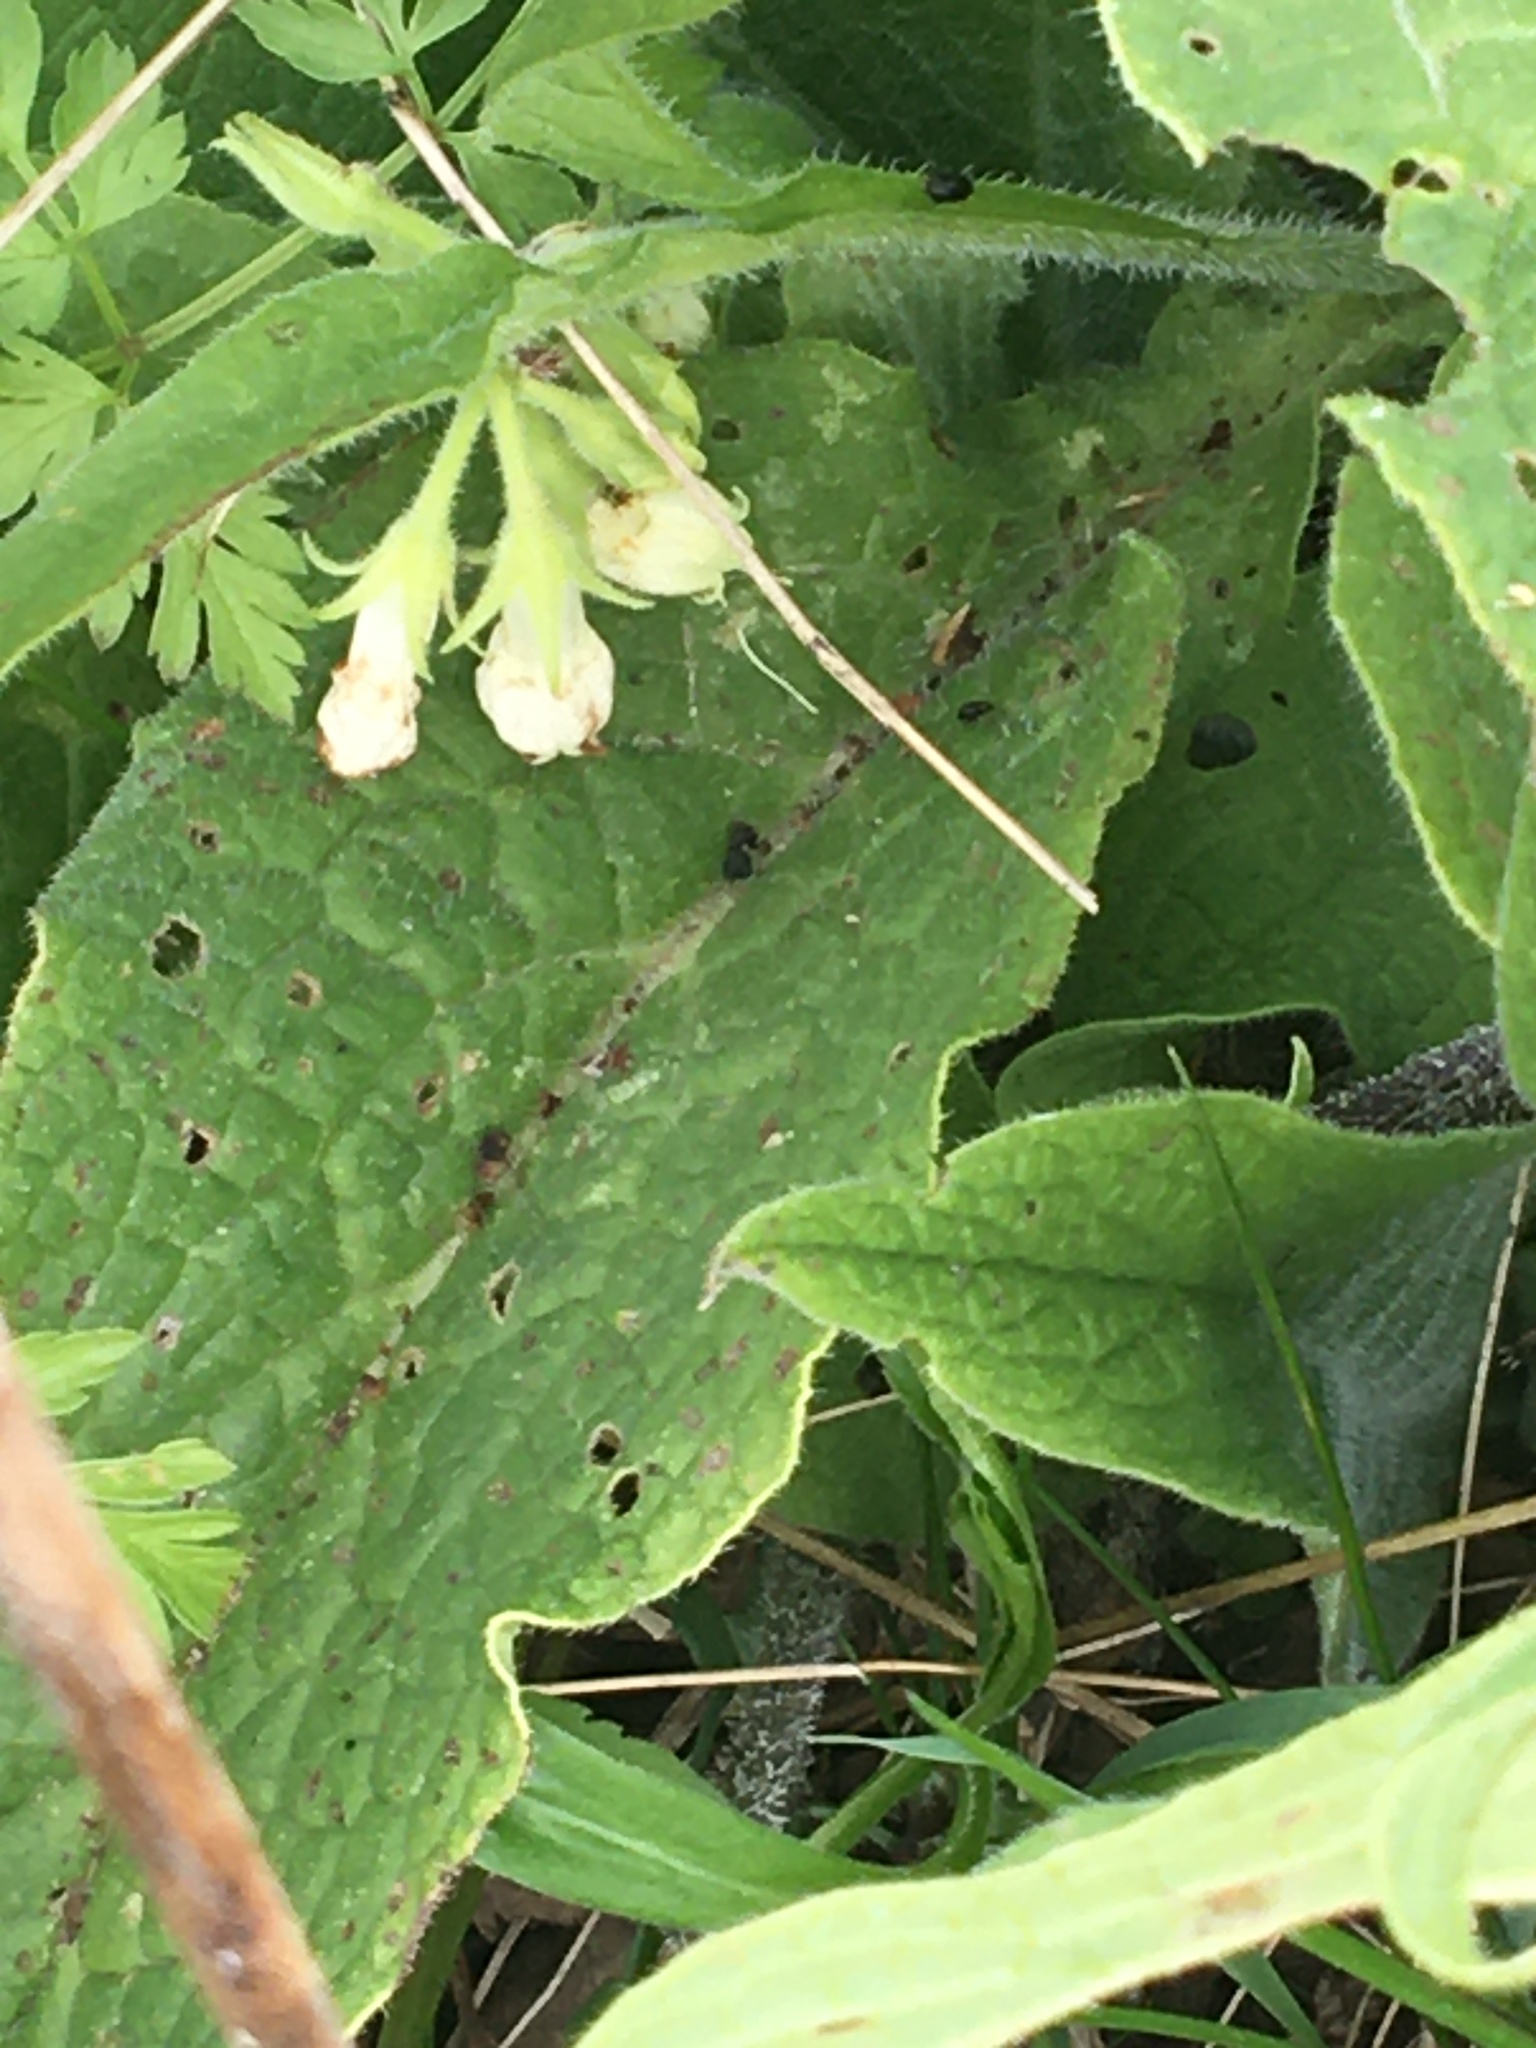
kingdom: Plantae
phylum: Tracheophyta
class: Magnoliopsida
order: Boraginales
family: Boraginaceae
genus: Symphytum
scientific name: Symphytum tuberosum
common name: Tuberous comfrey
